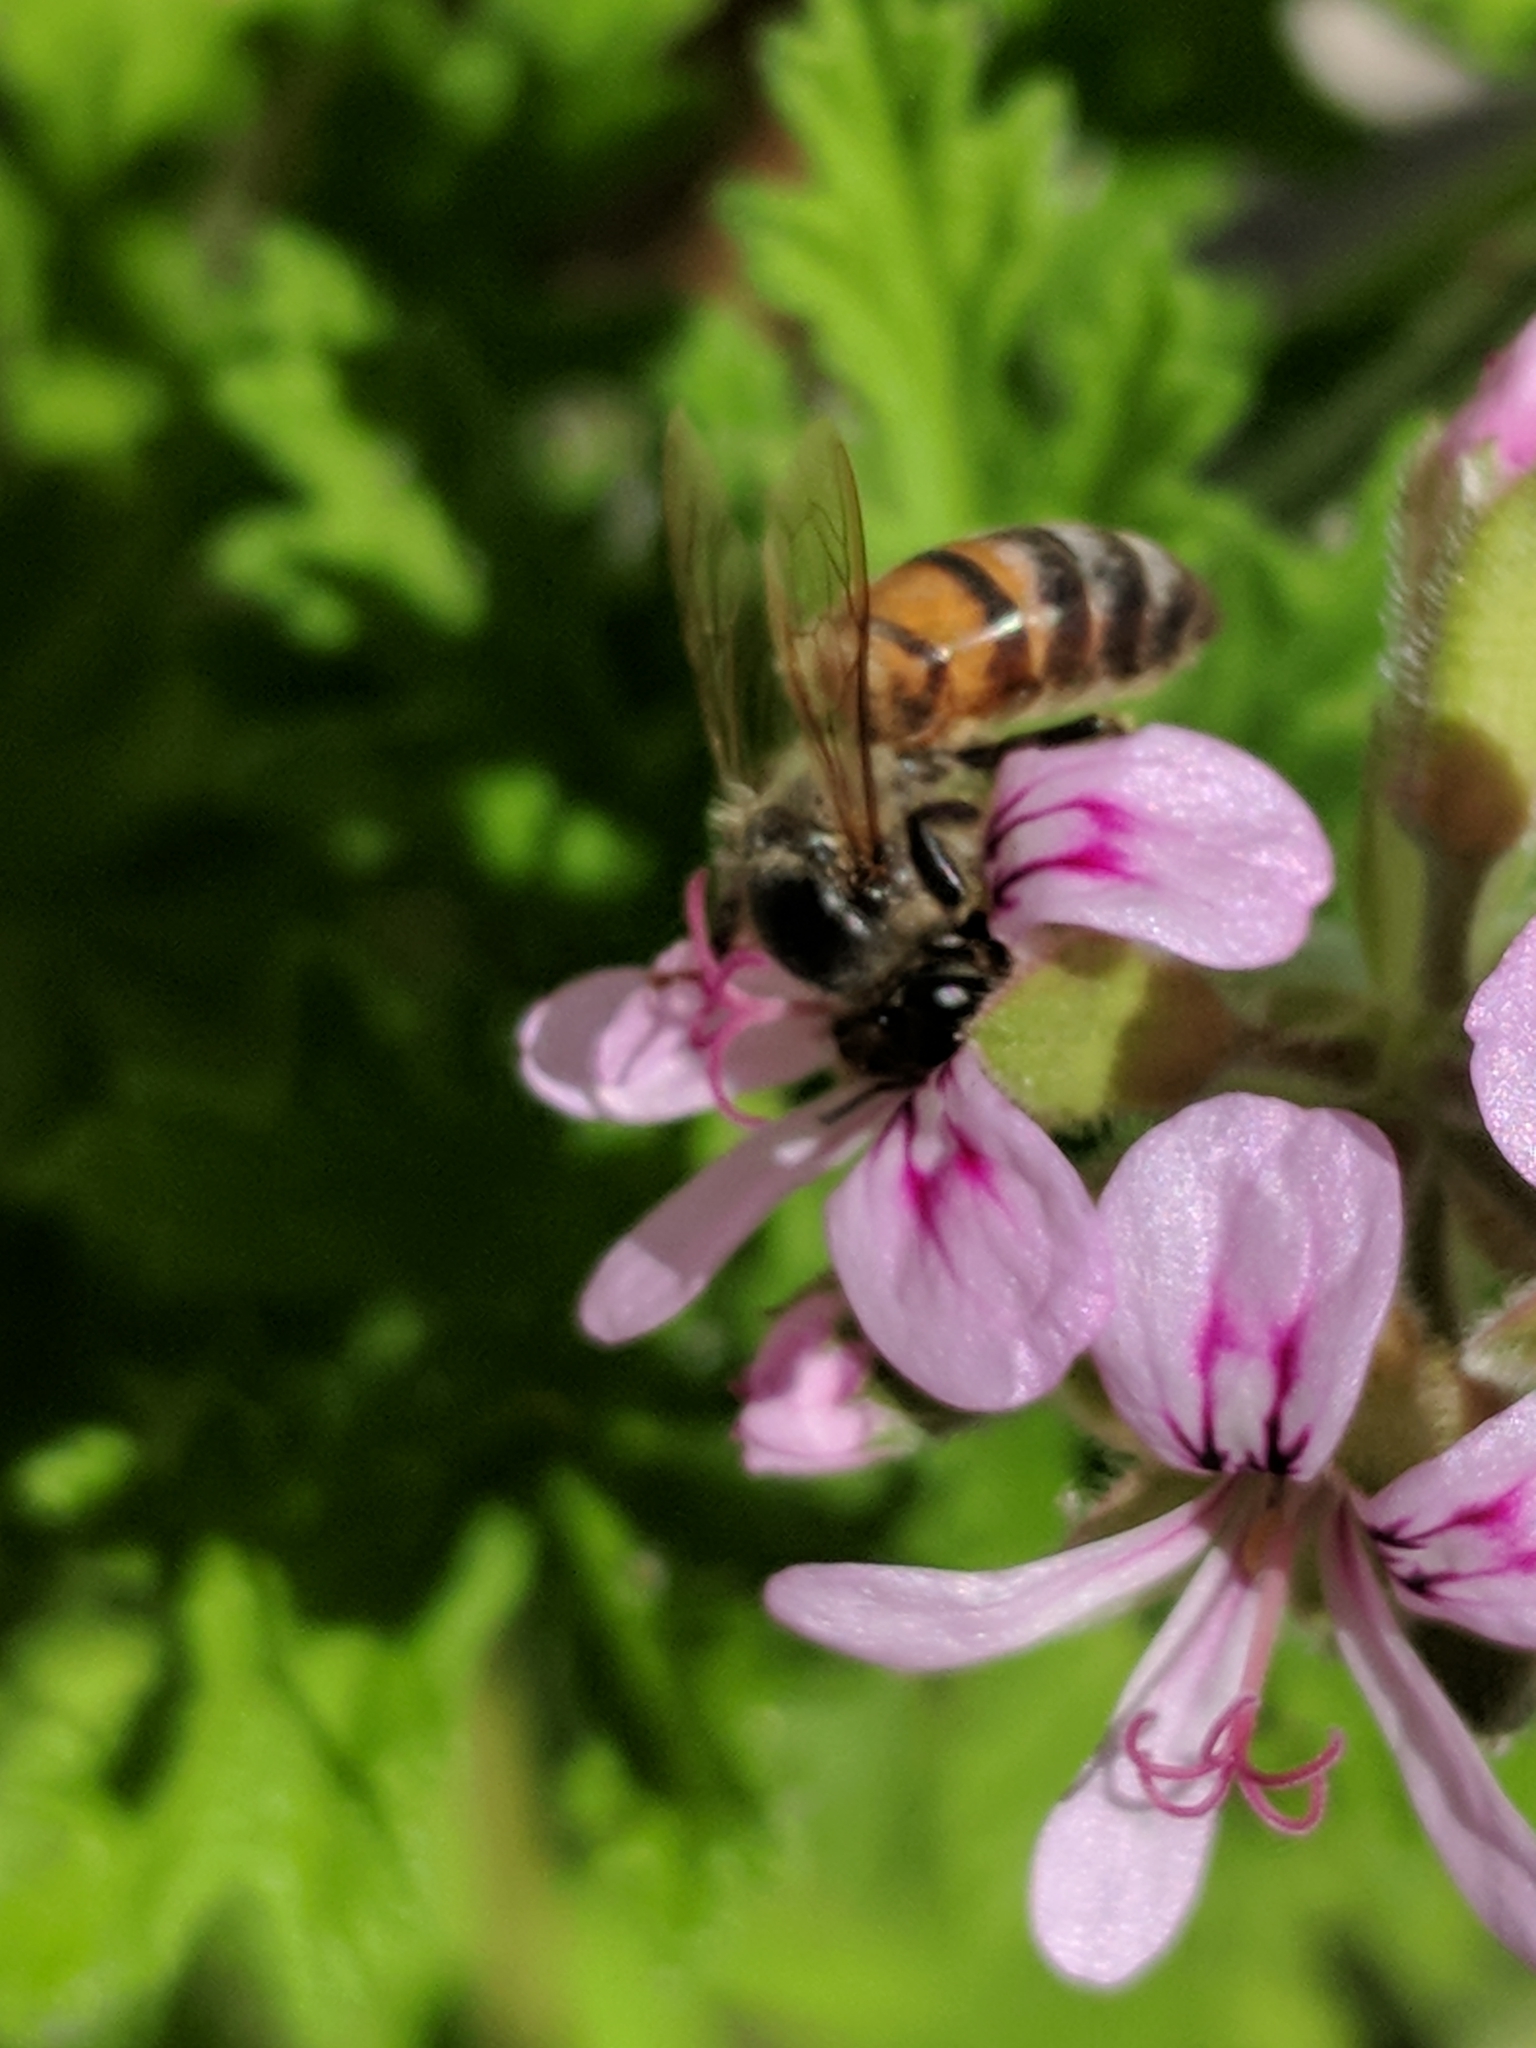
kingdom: Animalia
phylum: Arthropoda
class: Insecta
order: Hymenoptera
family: Apidae
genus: Apis
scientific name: Apis mellifera
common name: Honey bee
